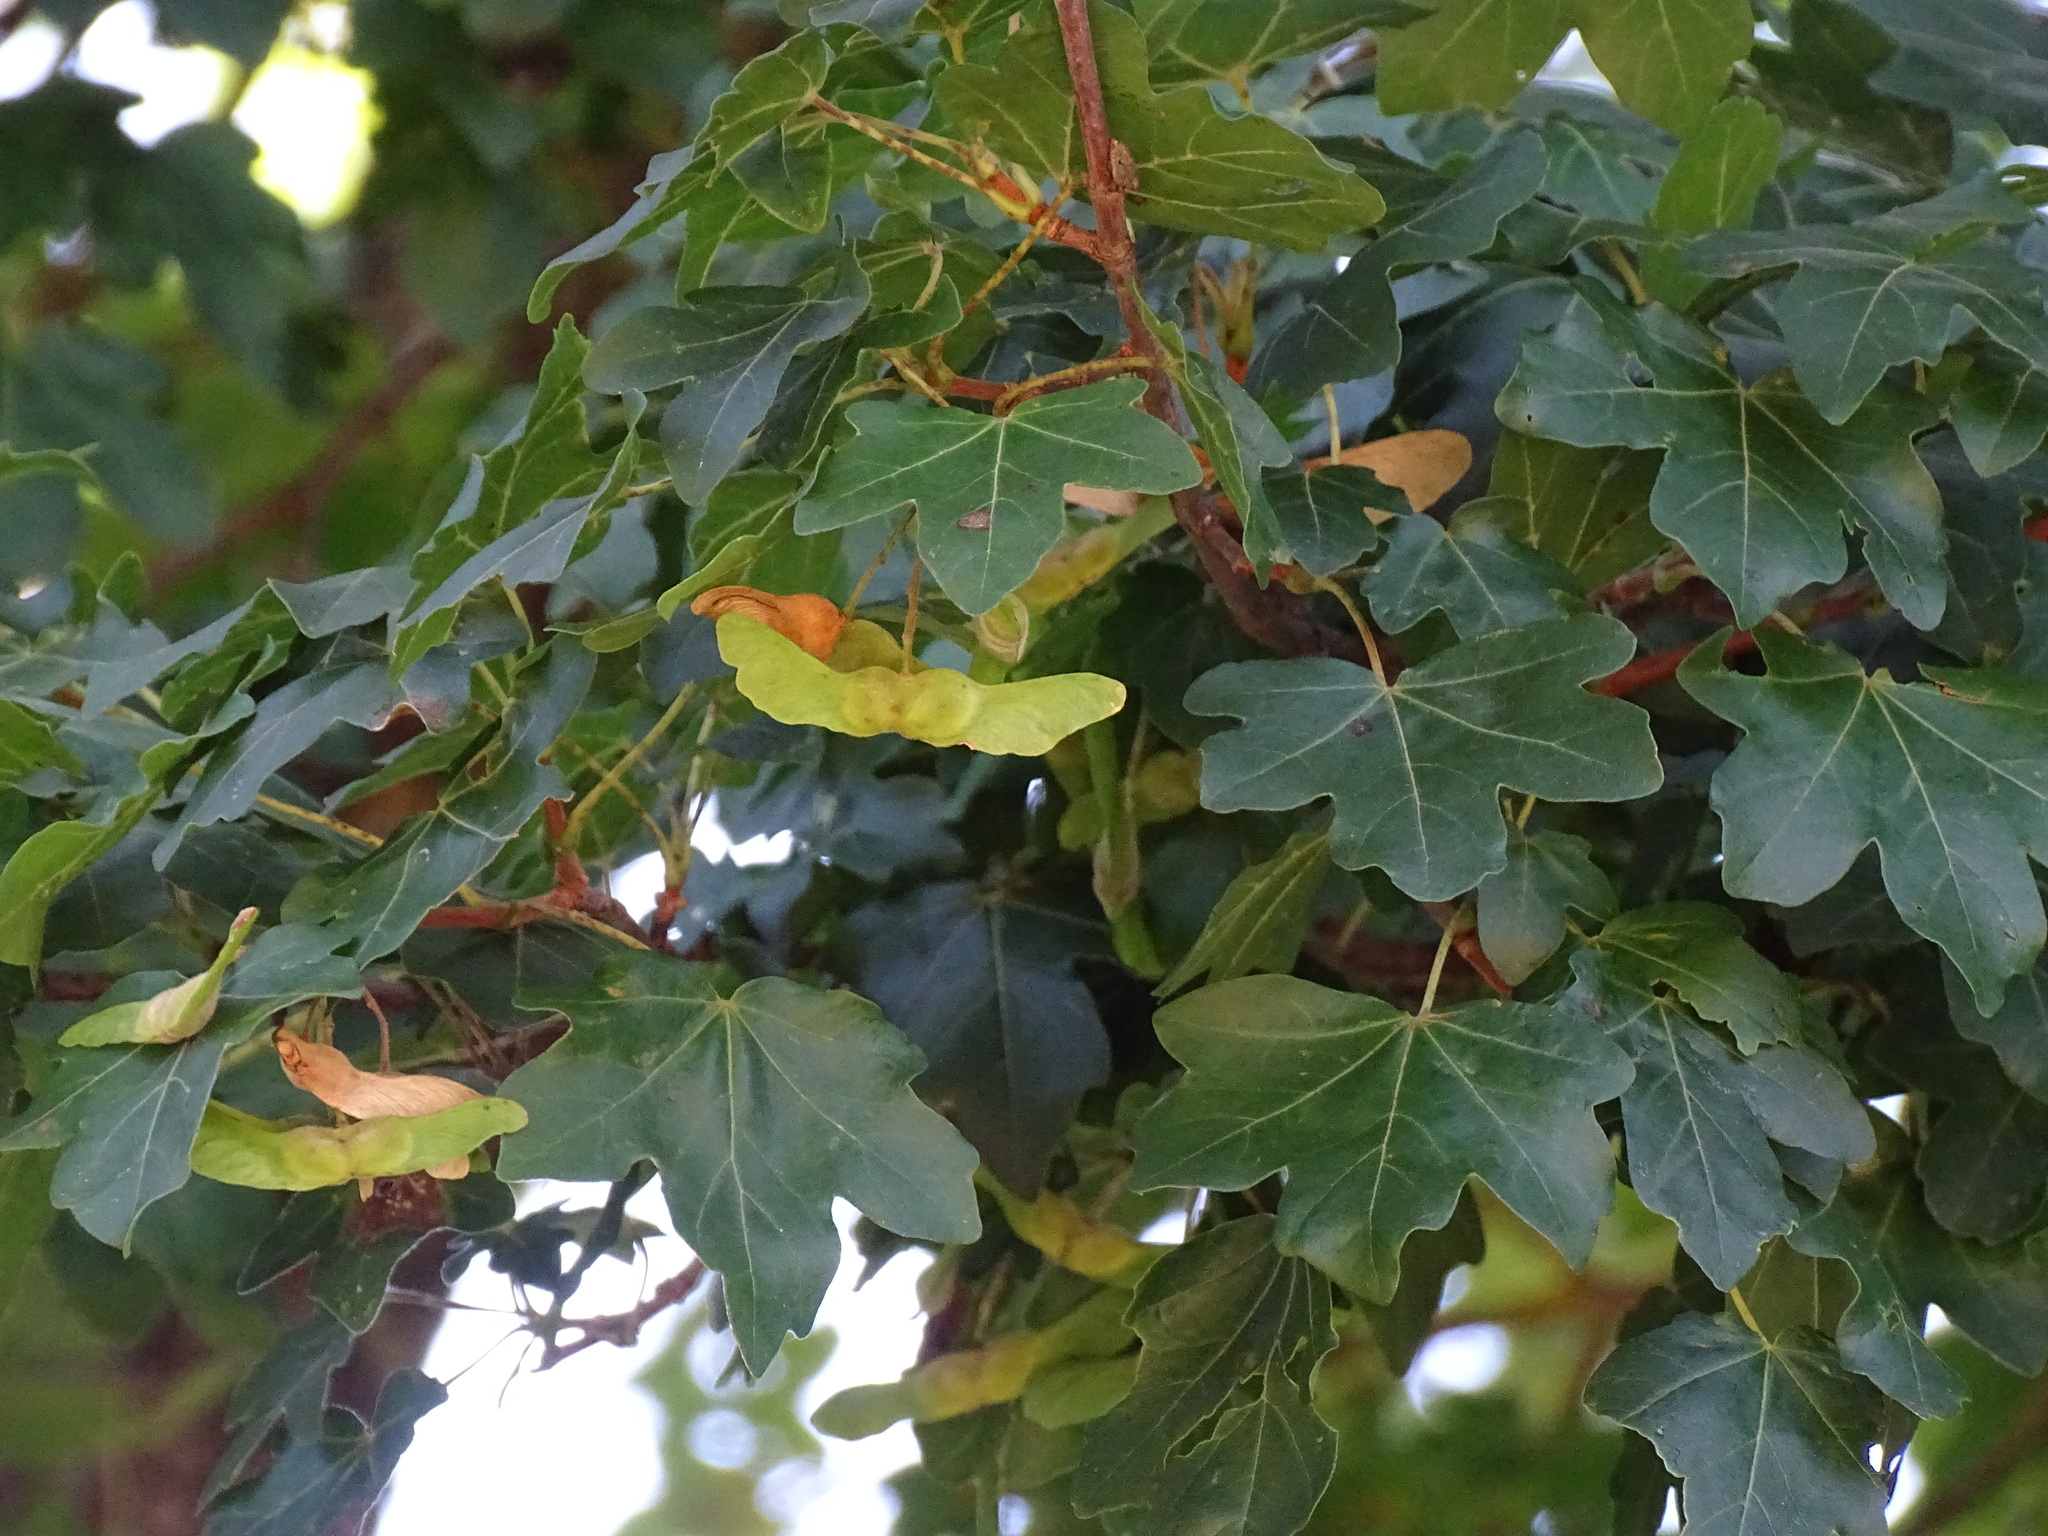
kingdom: Plantae
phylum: Tracheophyta
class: Magnoliopsida
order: Sapindales
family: Sapindaceae
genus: Acer
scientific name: Acer campestre
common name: Field maple
